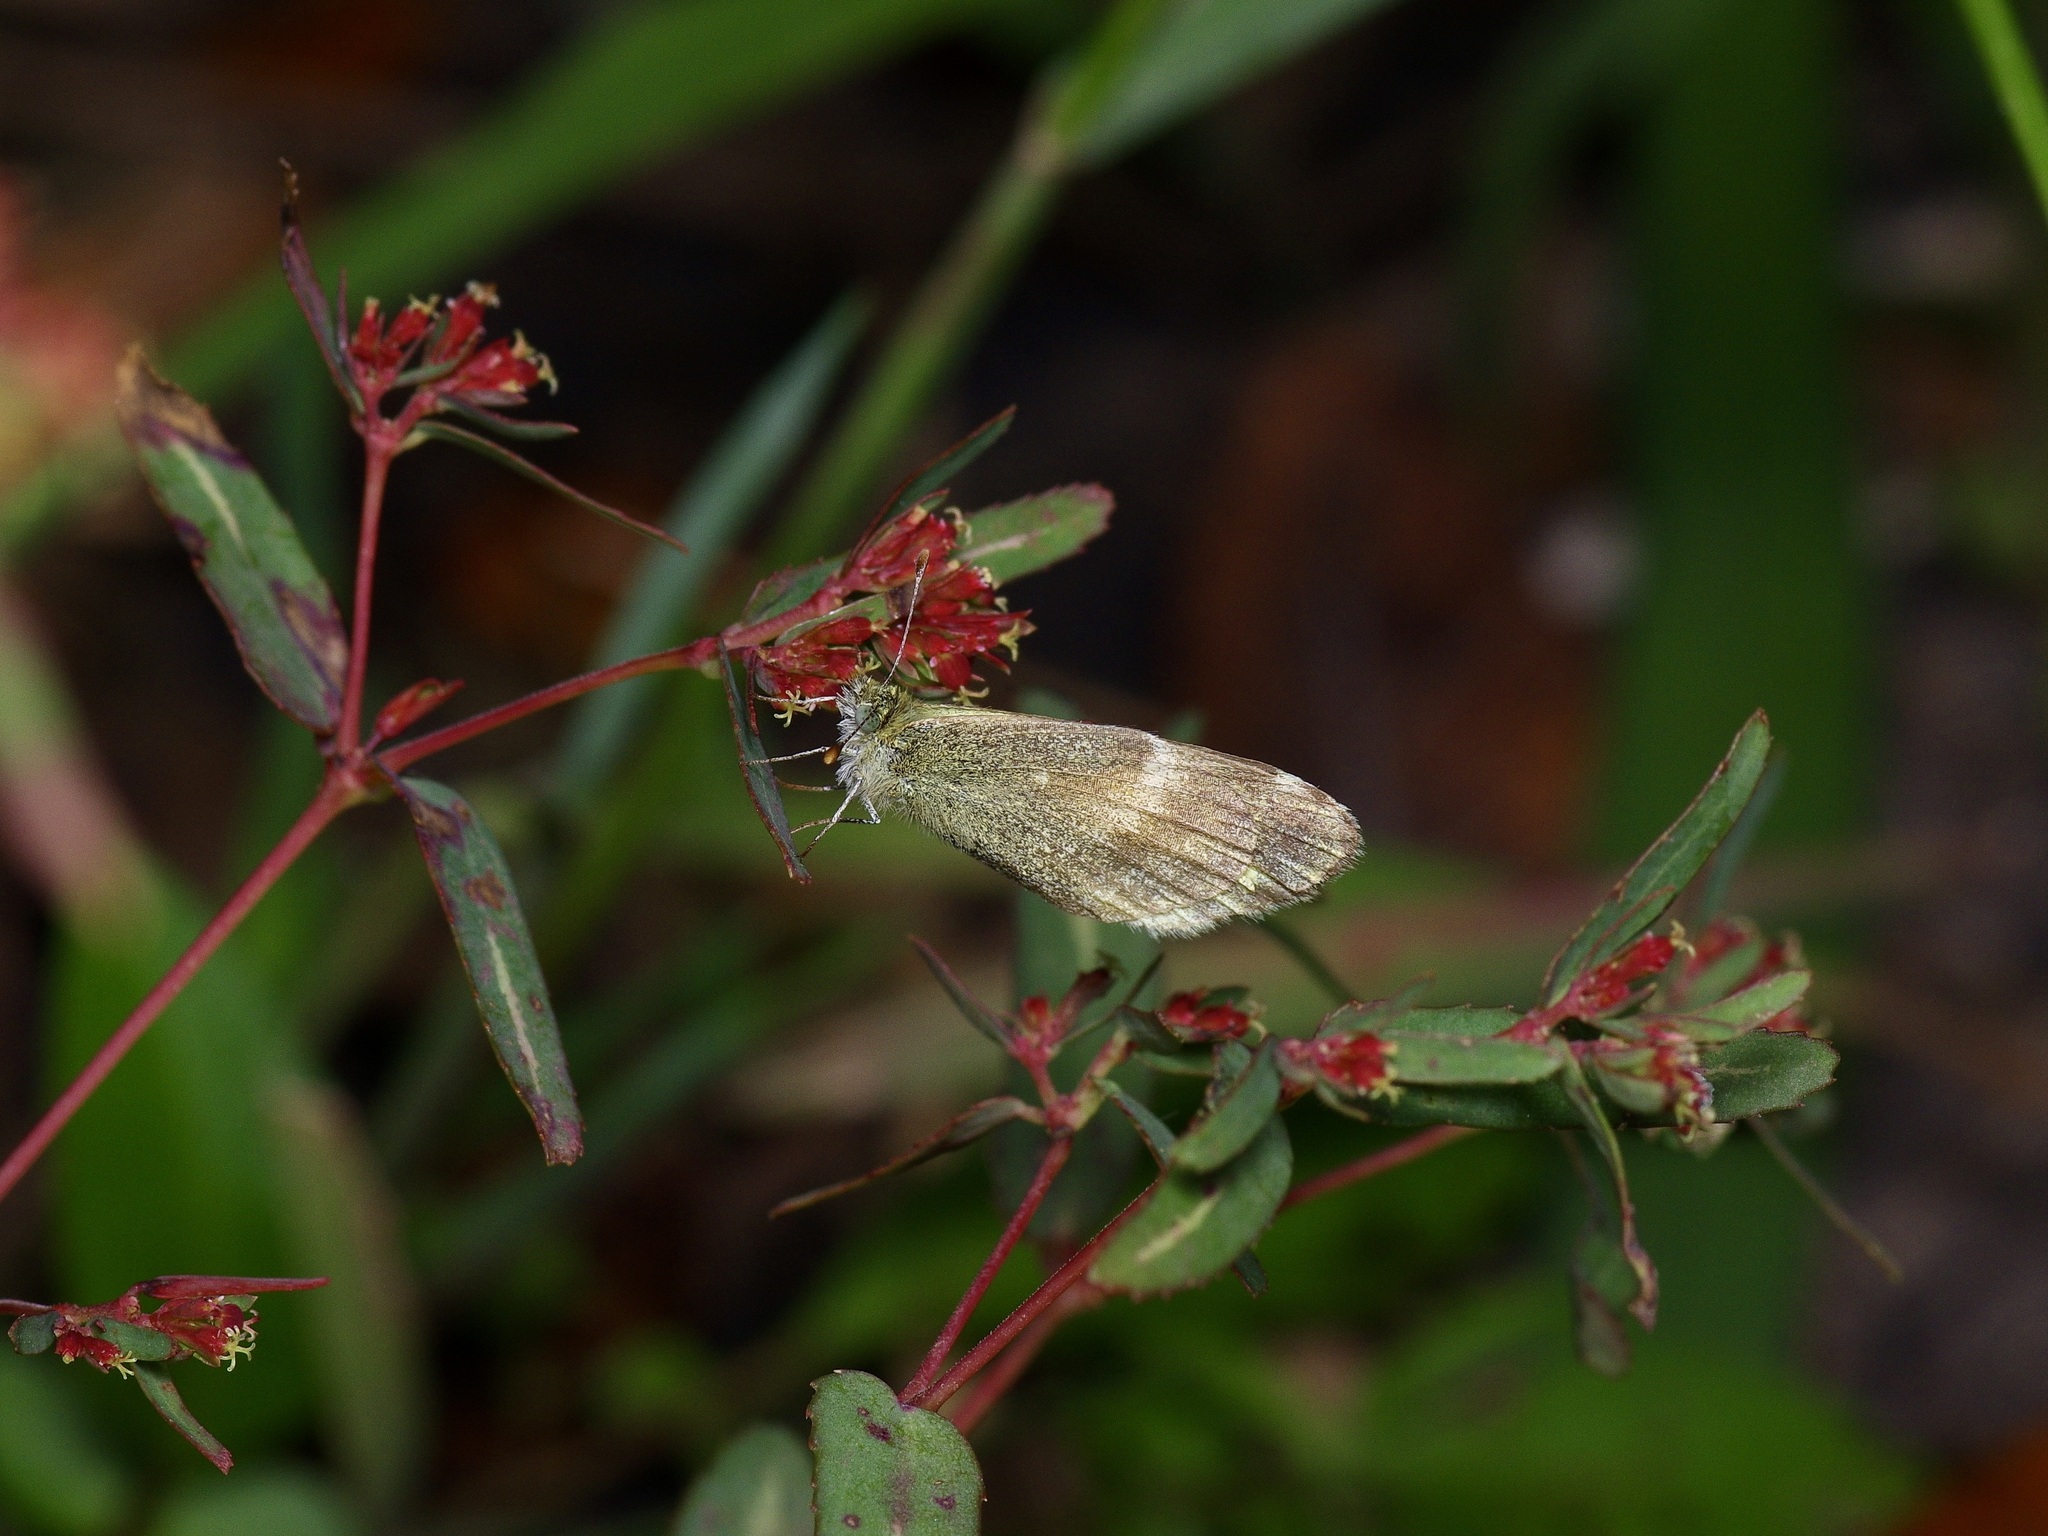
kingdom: Animalia
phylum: Arthropoda
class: Insecta
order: Lepidoptera
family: Pieridae
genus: Nathalis
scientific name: Nathalis iole
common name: Dainty sulphur
